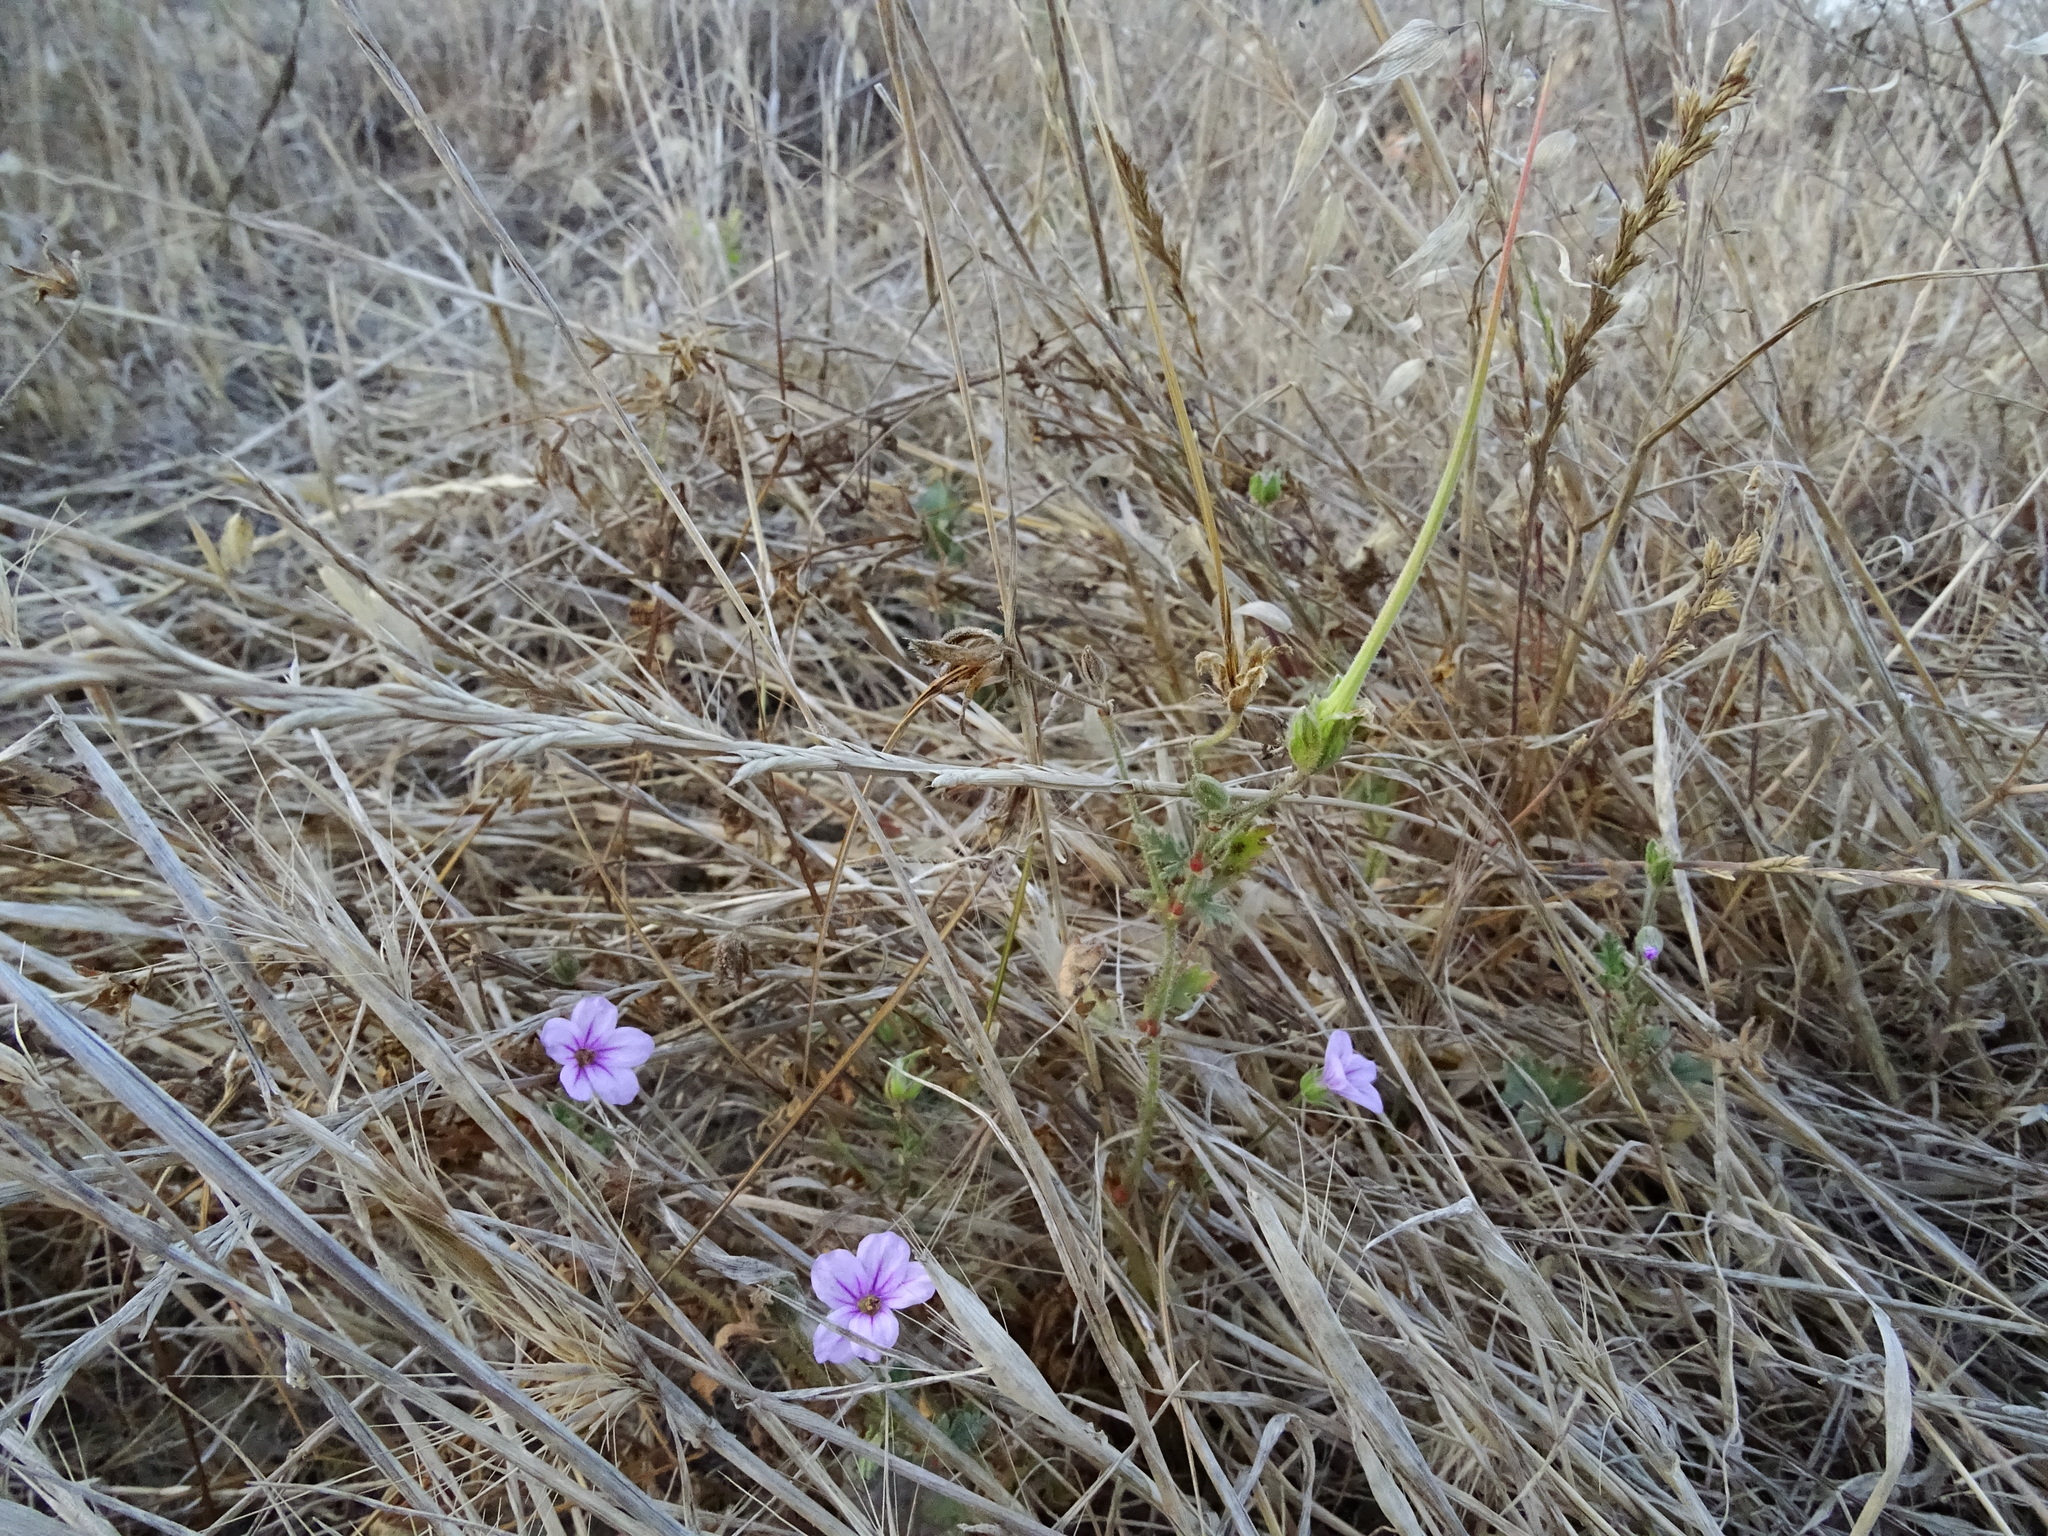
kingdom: Plantae
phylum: Tracheophyta
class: Magnoliopsida
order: Geraniales
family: Geraniaceae
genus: Erodium
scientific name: Erodium botrys
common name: Mediterranean stork's-bill
